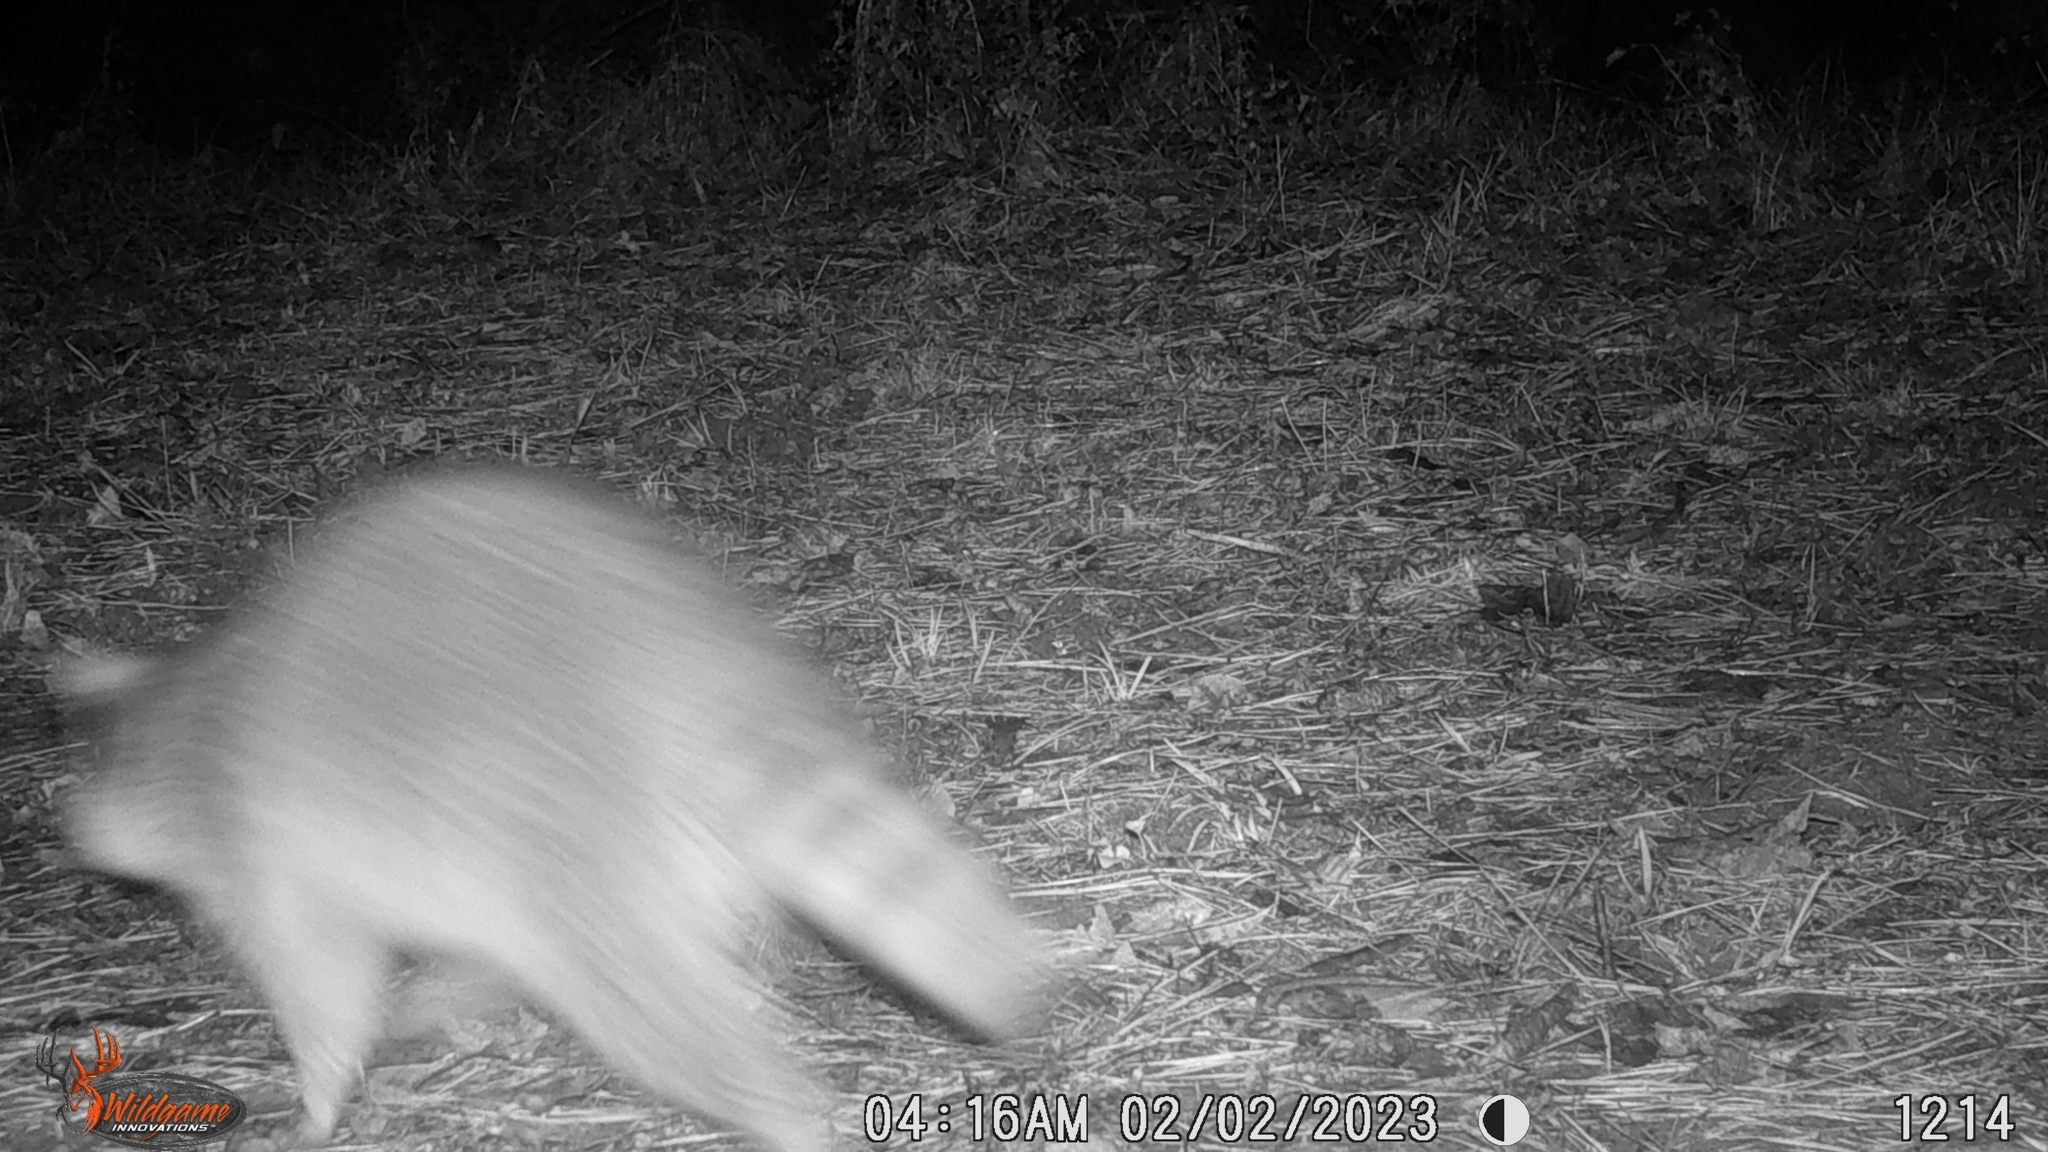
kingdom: Animalia
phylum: Chordata
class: Mammalia
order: Carnivora
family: Procyonidae
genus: Procyon
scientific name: Procyon lotor
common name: Raccoon
